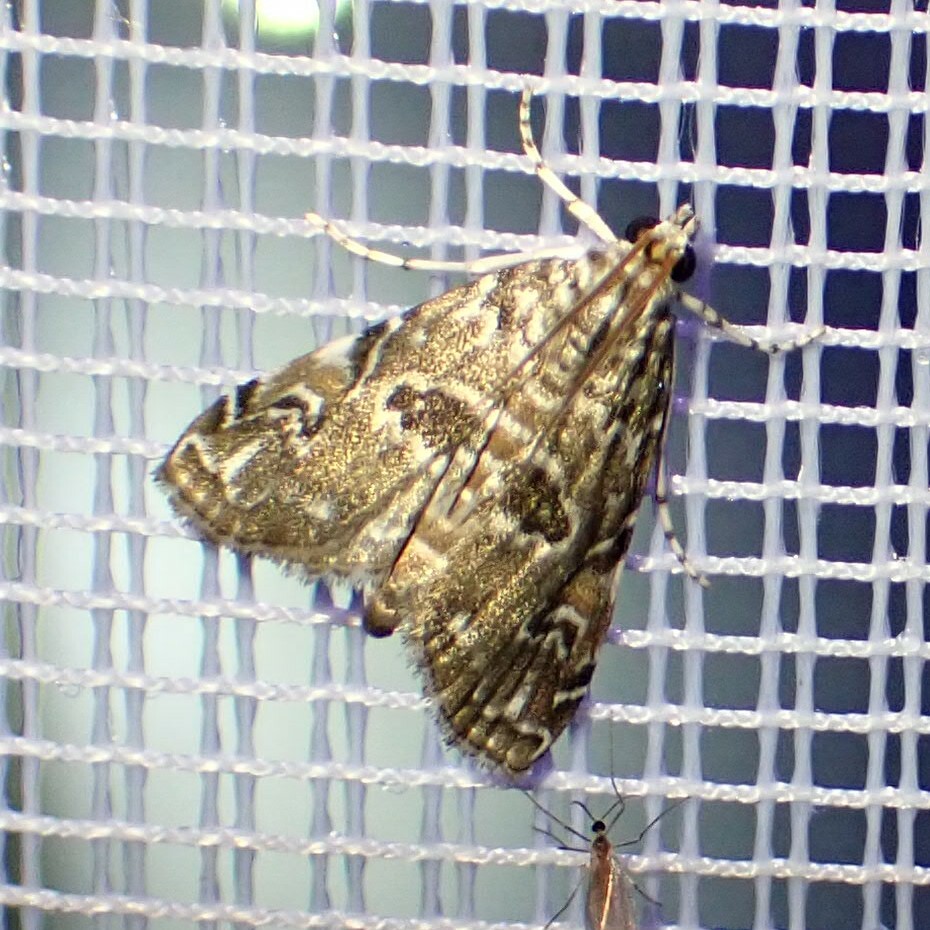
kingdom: Animalia
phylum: Arthropoda
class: Insecta
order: Lepidoptera
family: Crambidae
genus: Elophila
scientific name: Elophila gyralis
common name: Waterlily borer moth
